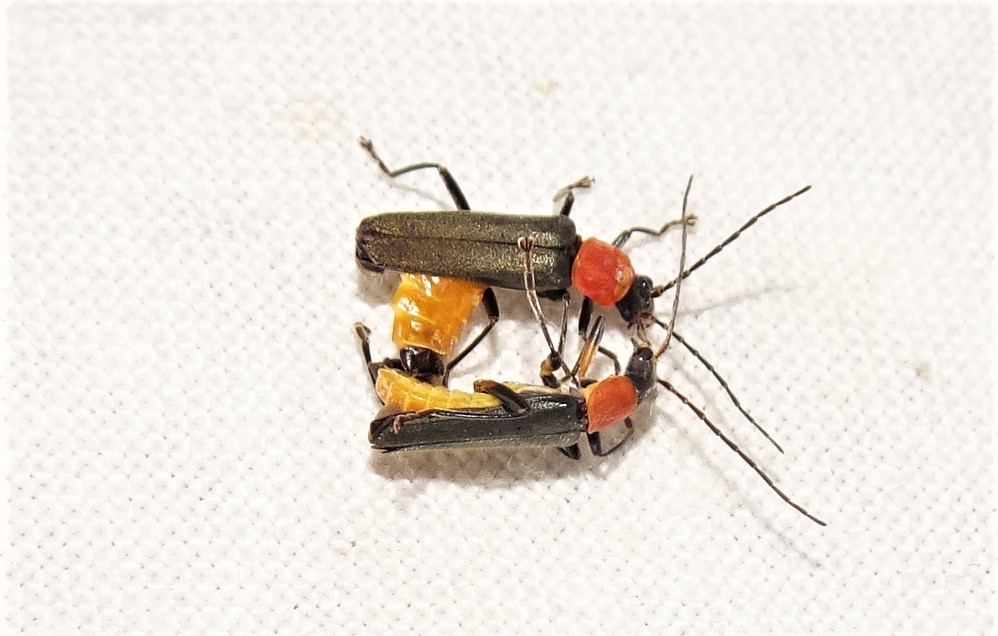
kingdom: Animalia
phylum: Arthropoda
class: Insecta
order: Coleoptera
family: Cantharidae
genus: Chauliognathus
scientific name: Chauliognathus
